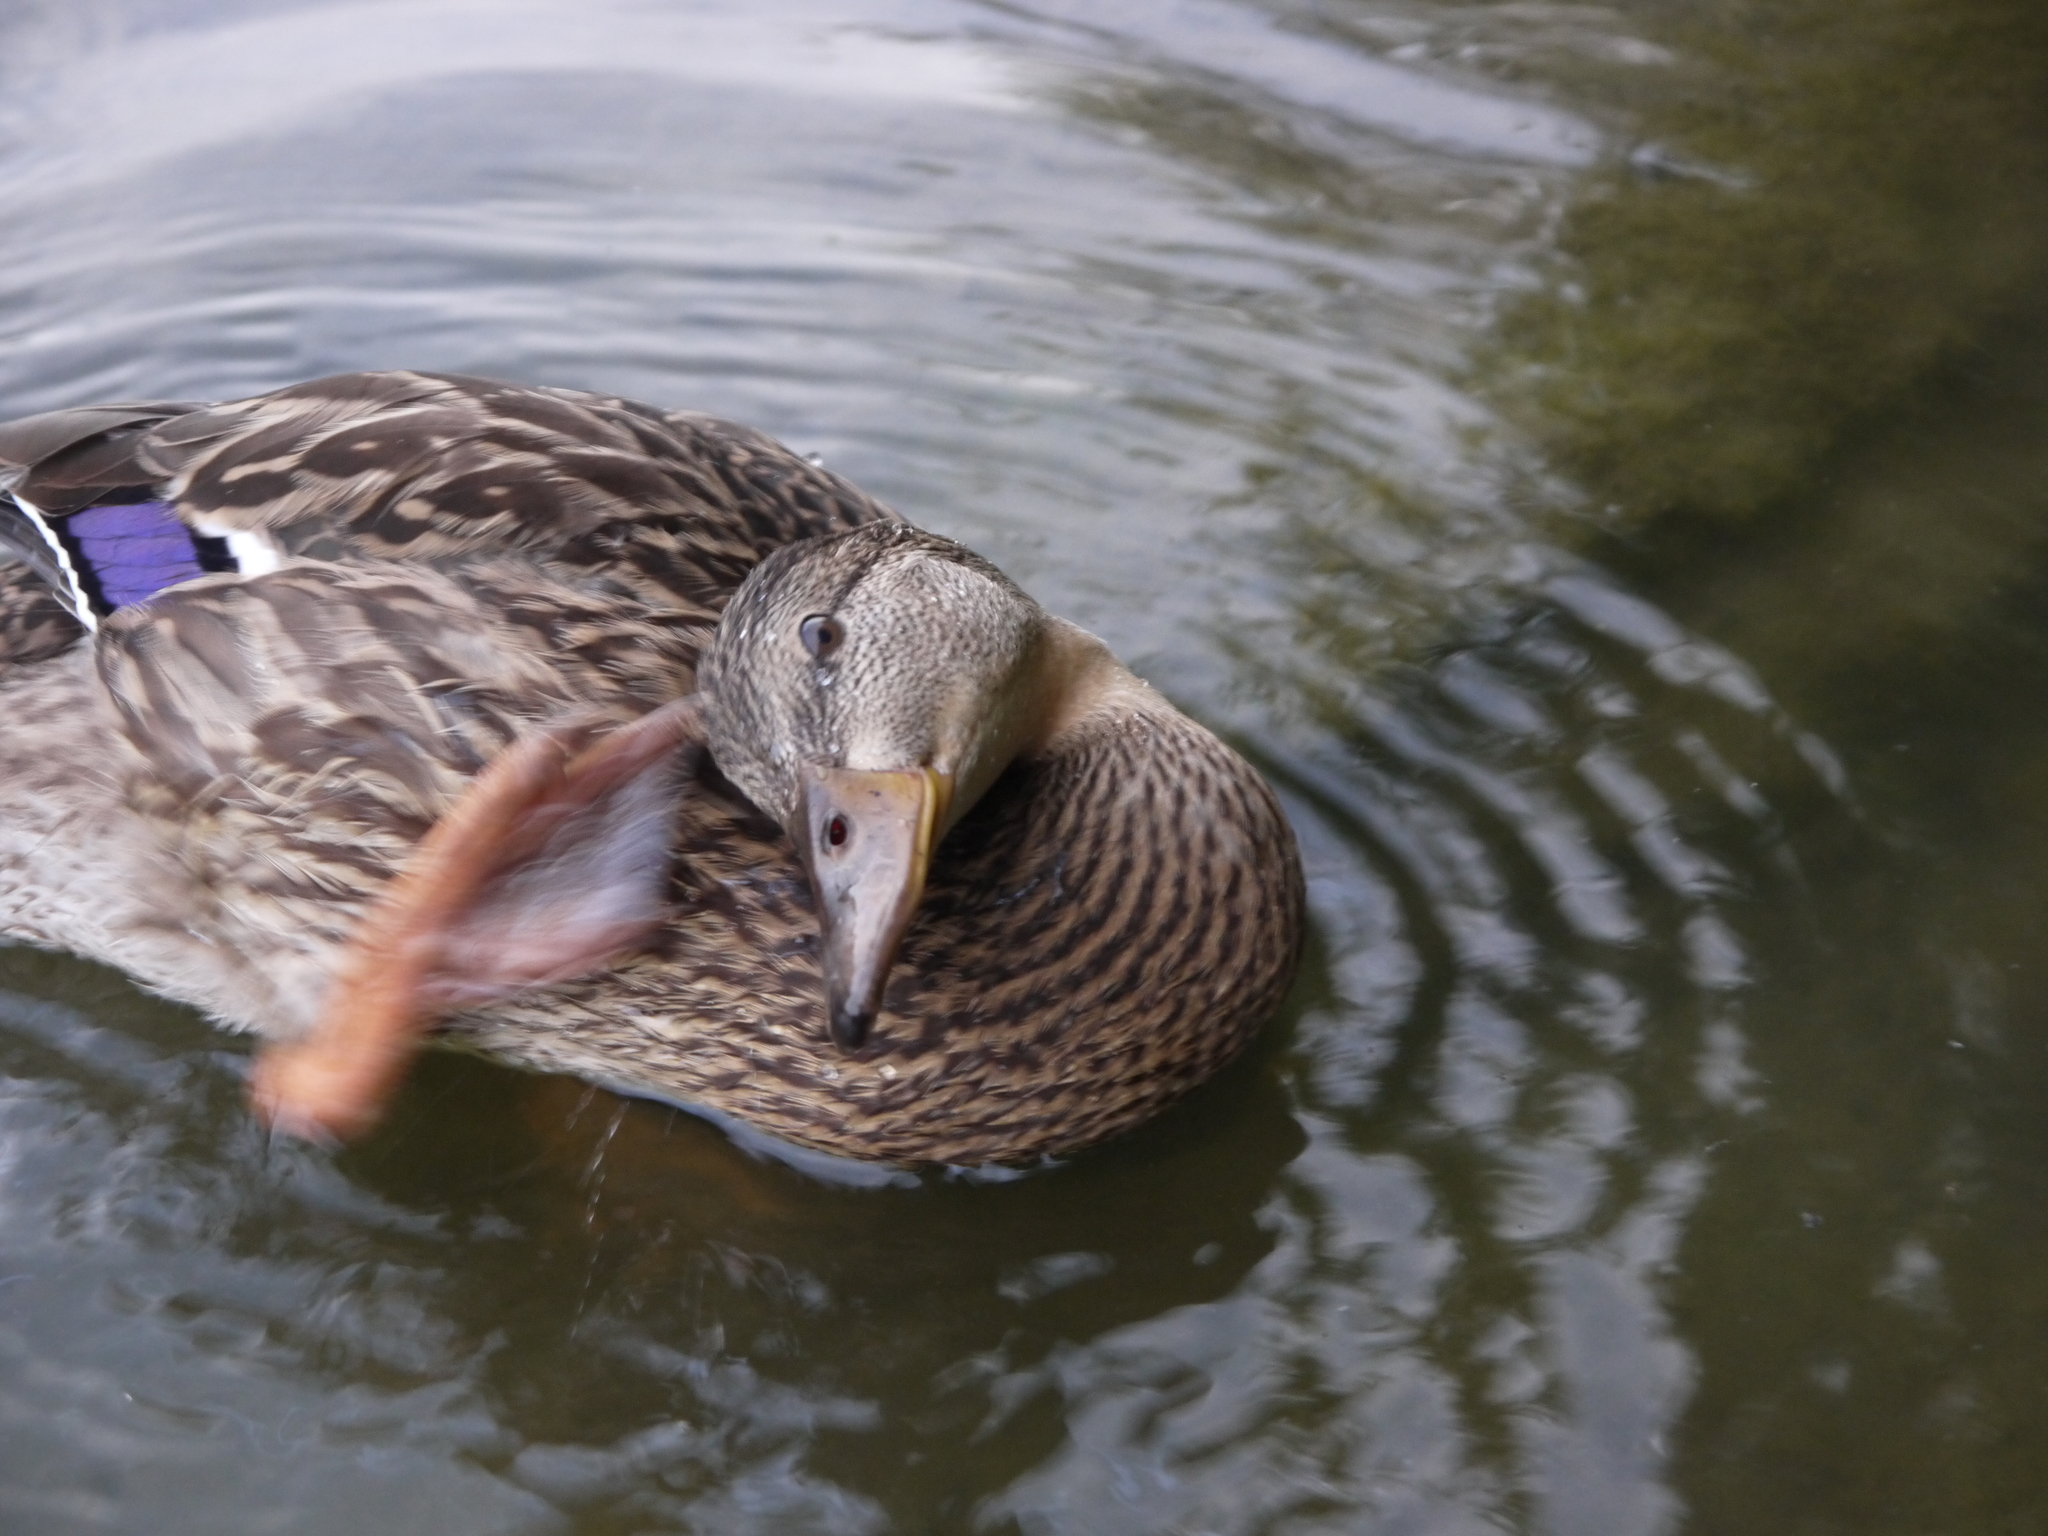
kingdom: Animalia
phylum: Chordata
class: Aves
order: Anseriformes
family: Anatidae
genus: Anas
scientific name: Anas platyrhynchos
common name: Mallard
